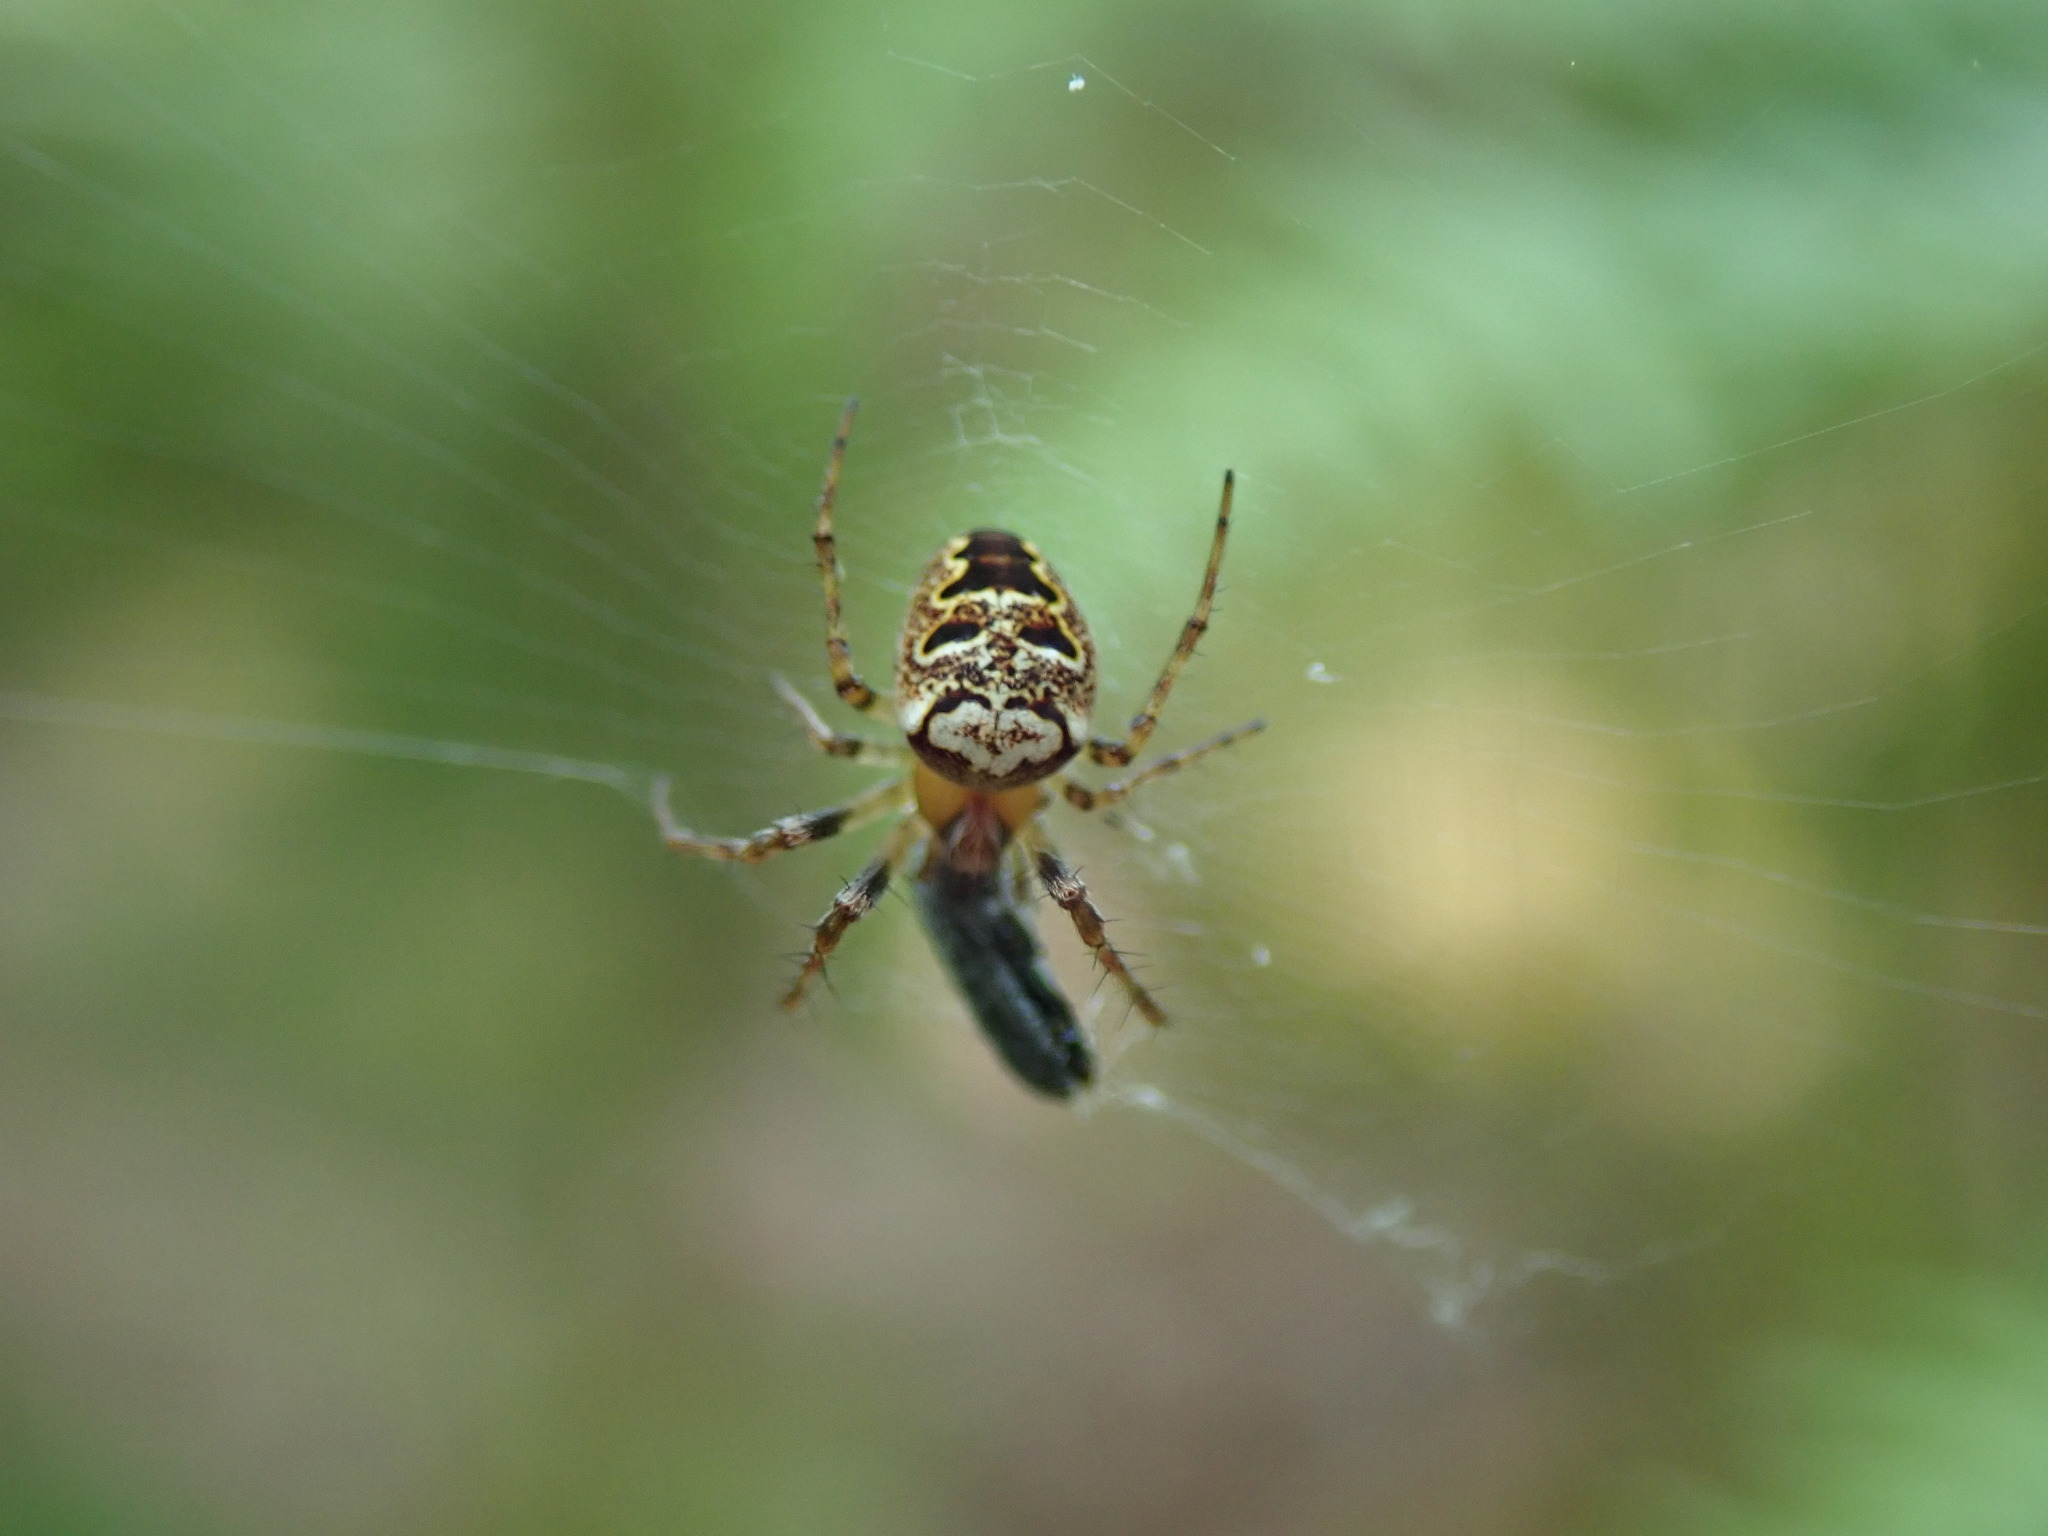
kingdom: Animalia
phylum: Arthropoda
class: Arachnida
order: Araneae
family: Araneidae
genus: Zilla
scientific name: Zilla diodia
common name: Zilla diodia
